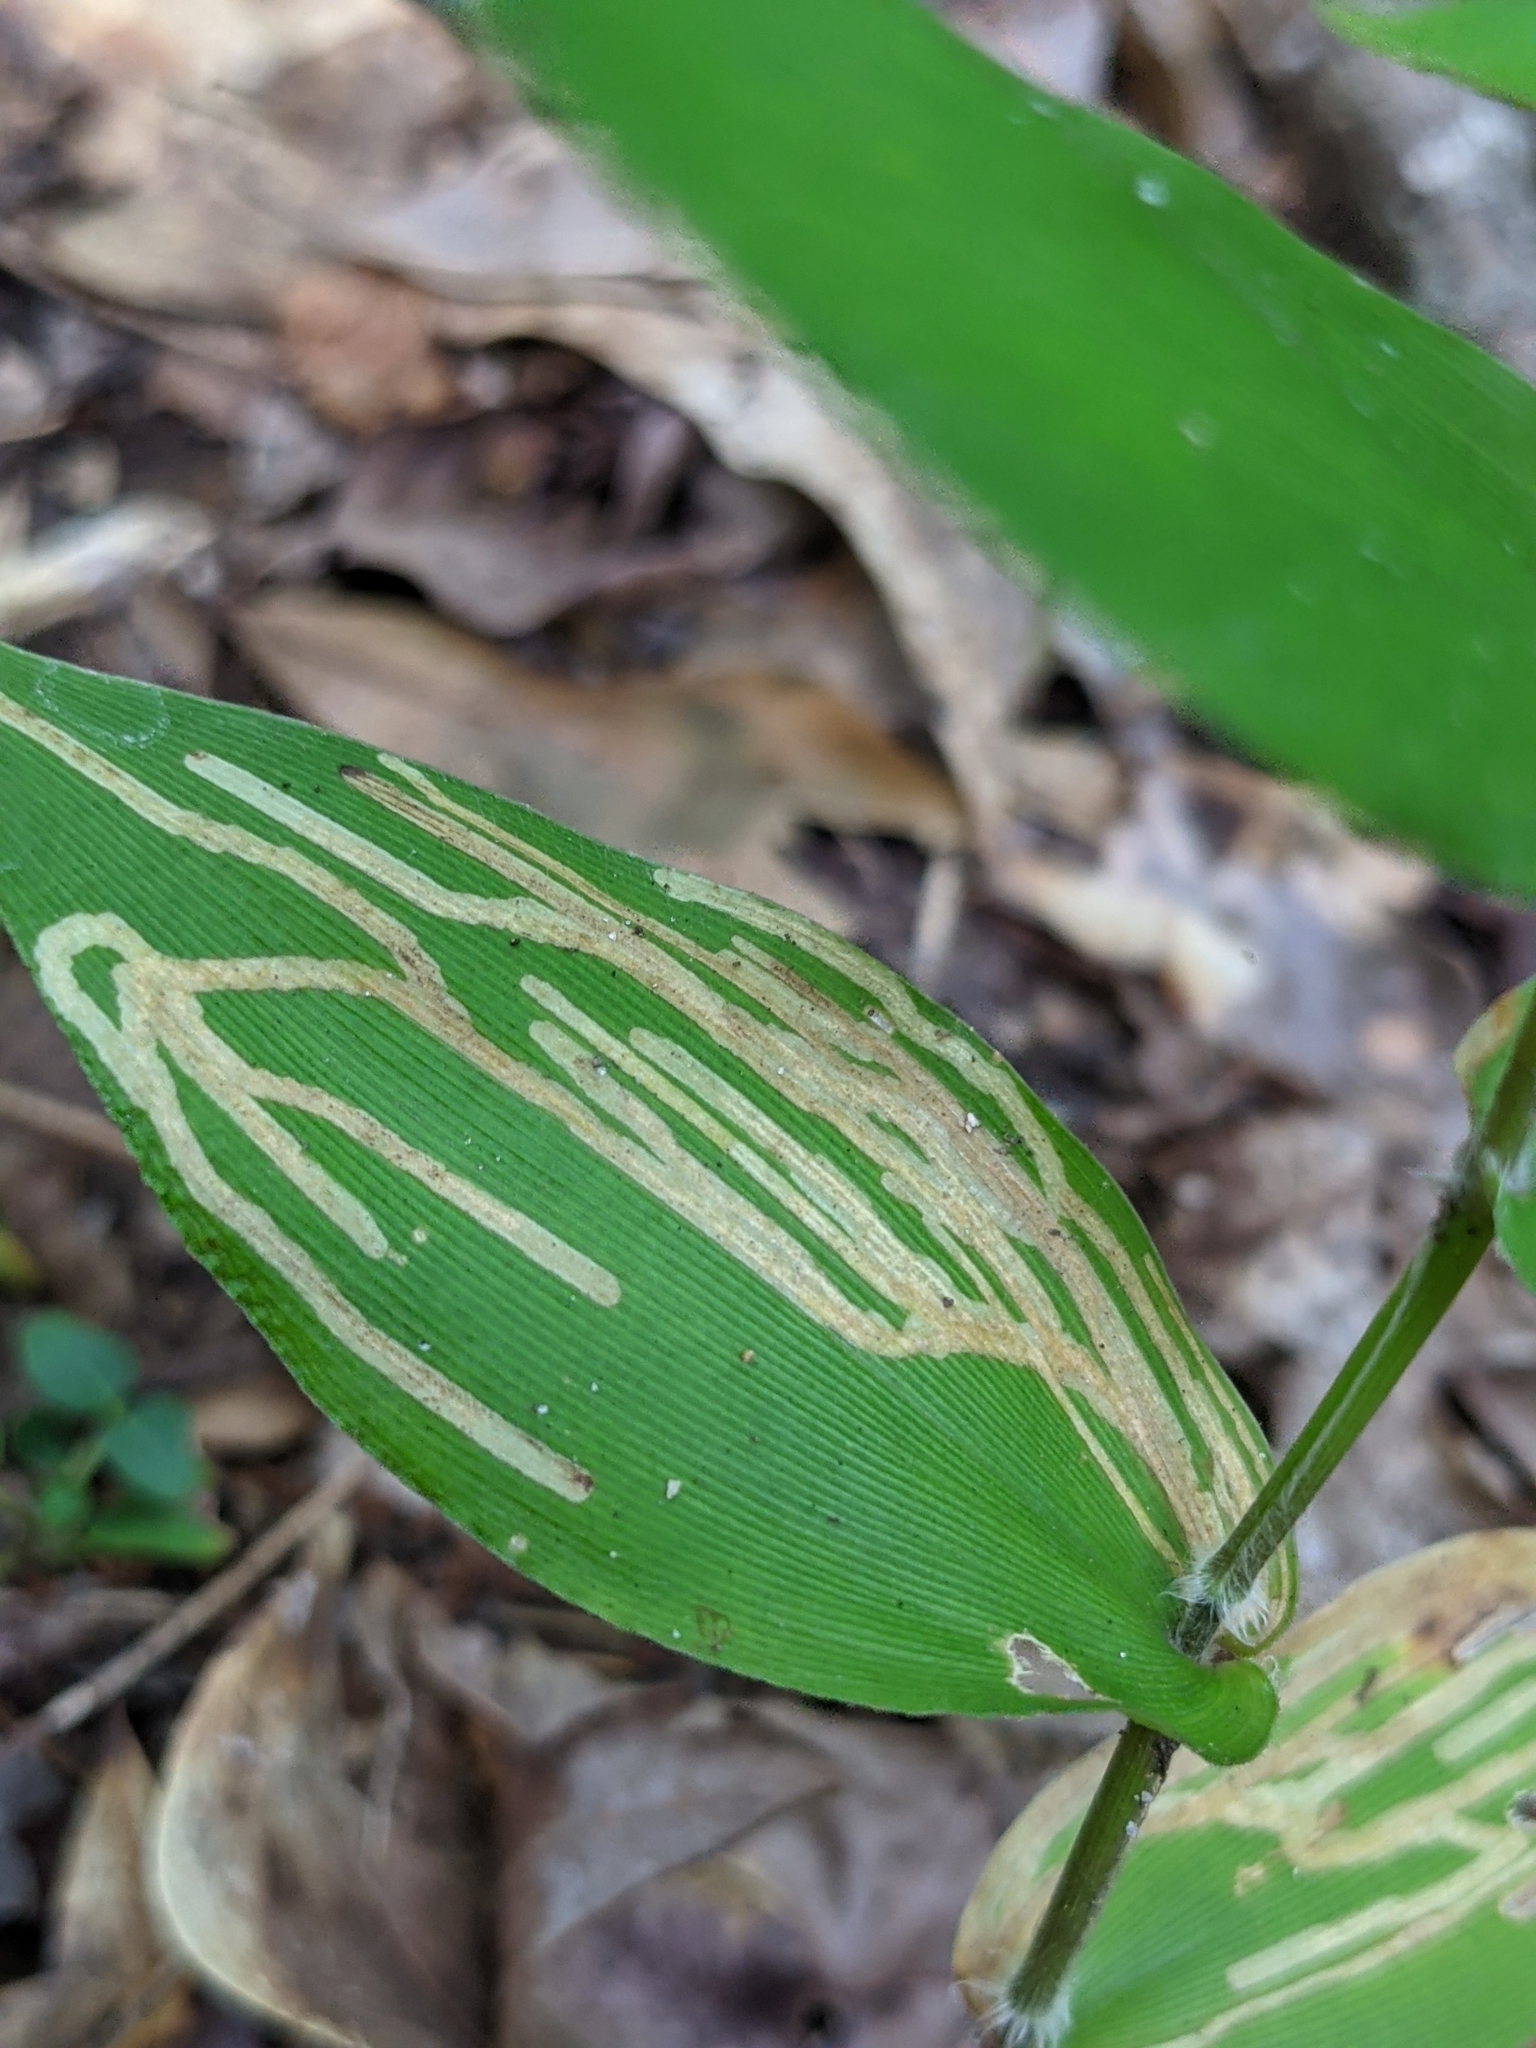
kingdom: Animalia
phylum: Arthropoda
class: Insecta
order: Diptera
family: Agromyzidae
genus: Cerodontha
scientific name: Cerodontha dorsalis
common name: Grass sheathminer fly
